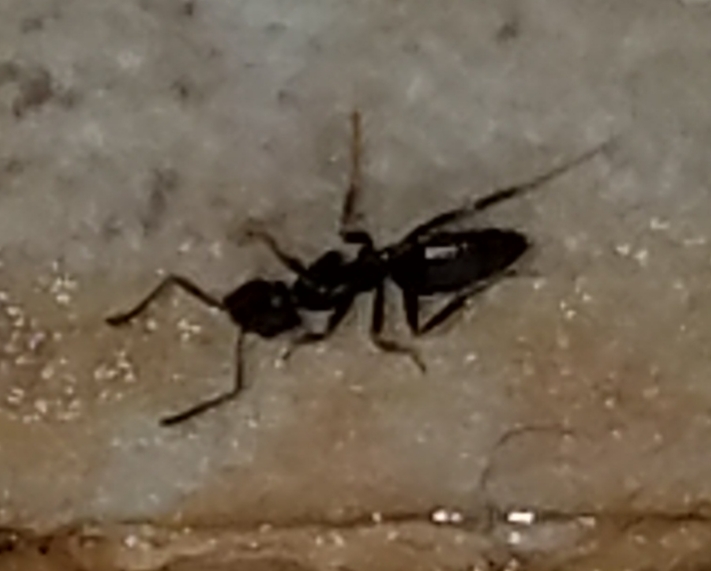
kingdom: Animalia
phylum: Arthropoda
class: Insecta
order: Hymenoptera
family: Formicidae
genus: Tapinoma
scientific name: Tapinoma sessile
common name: Odorous house ant
